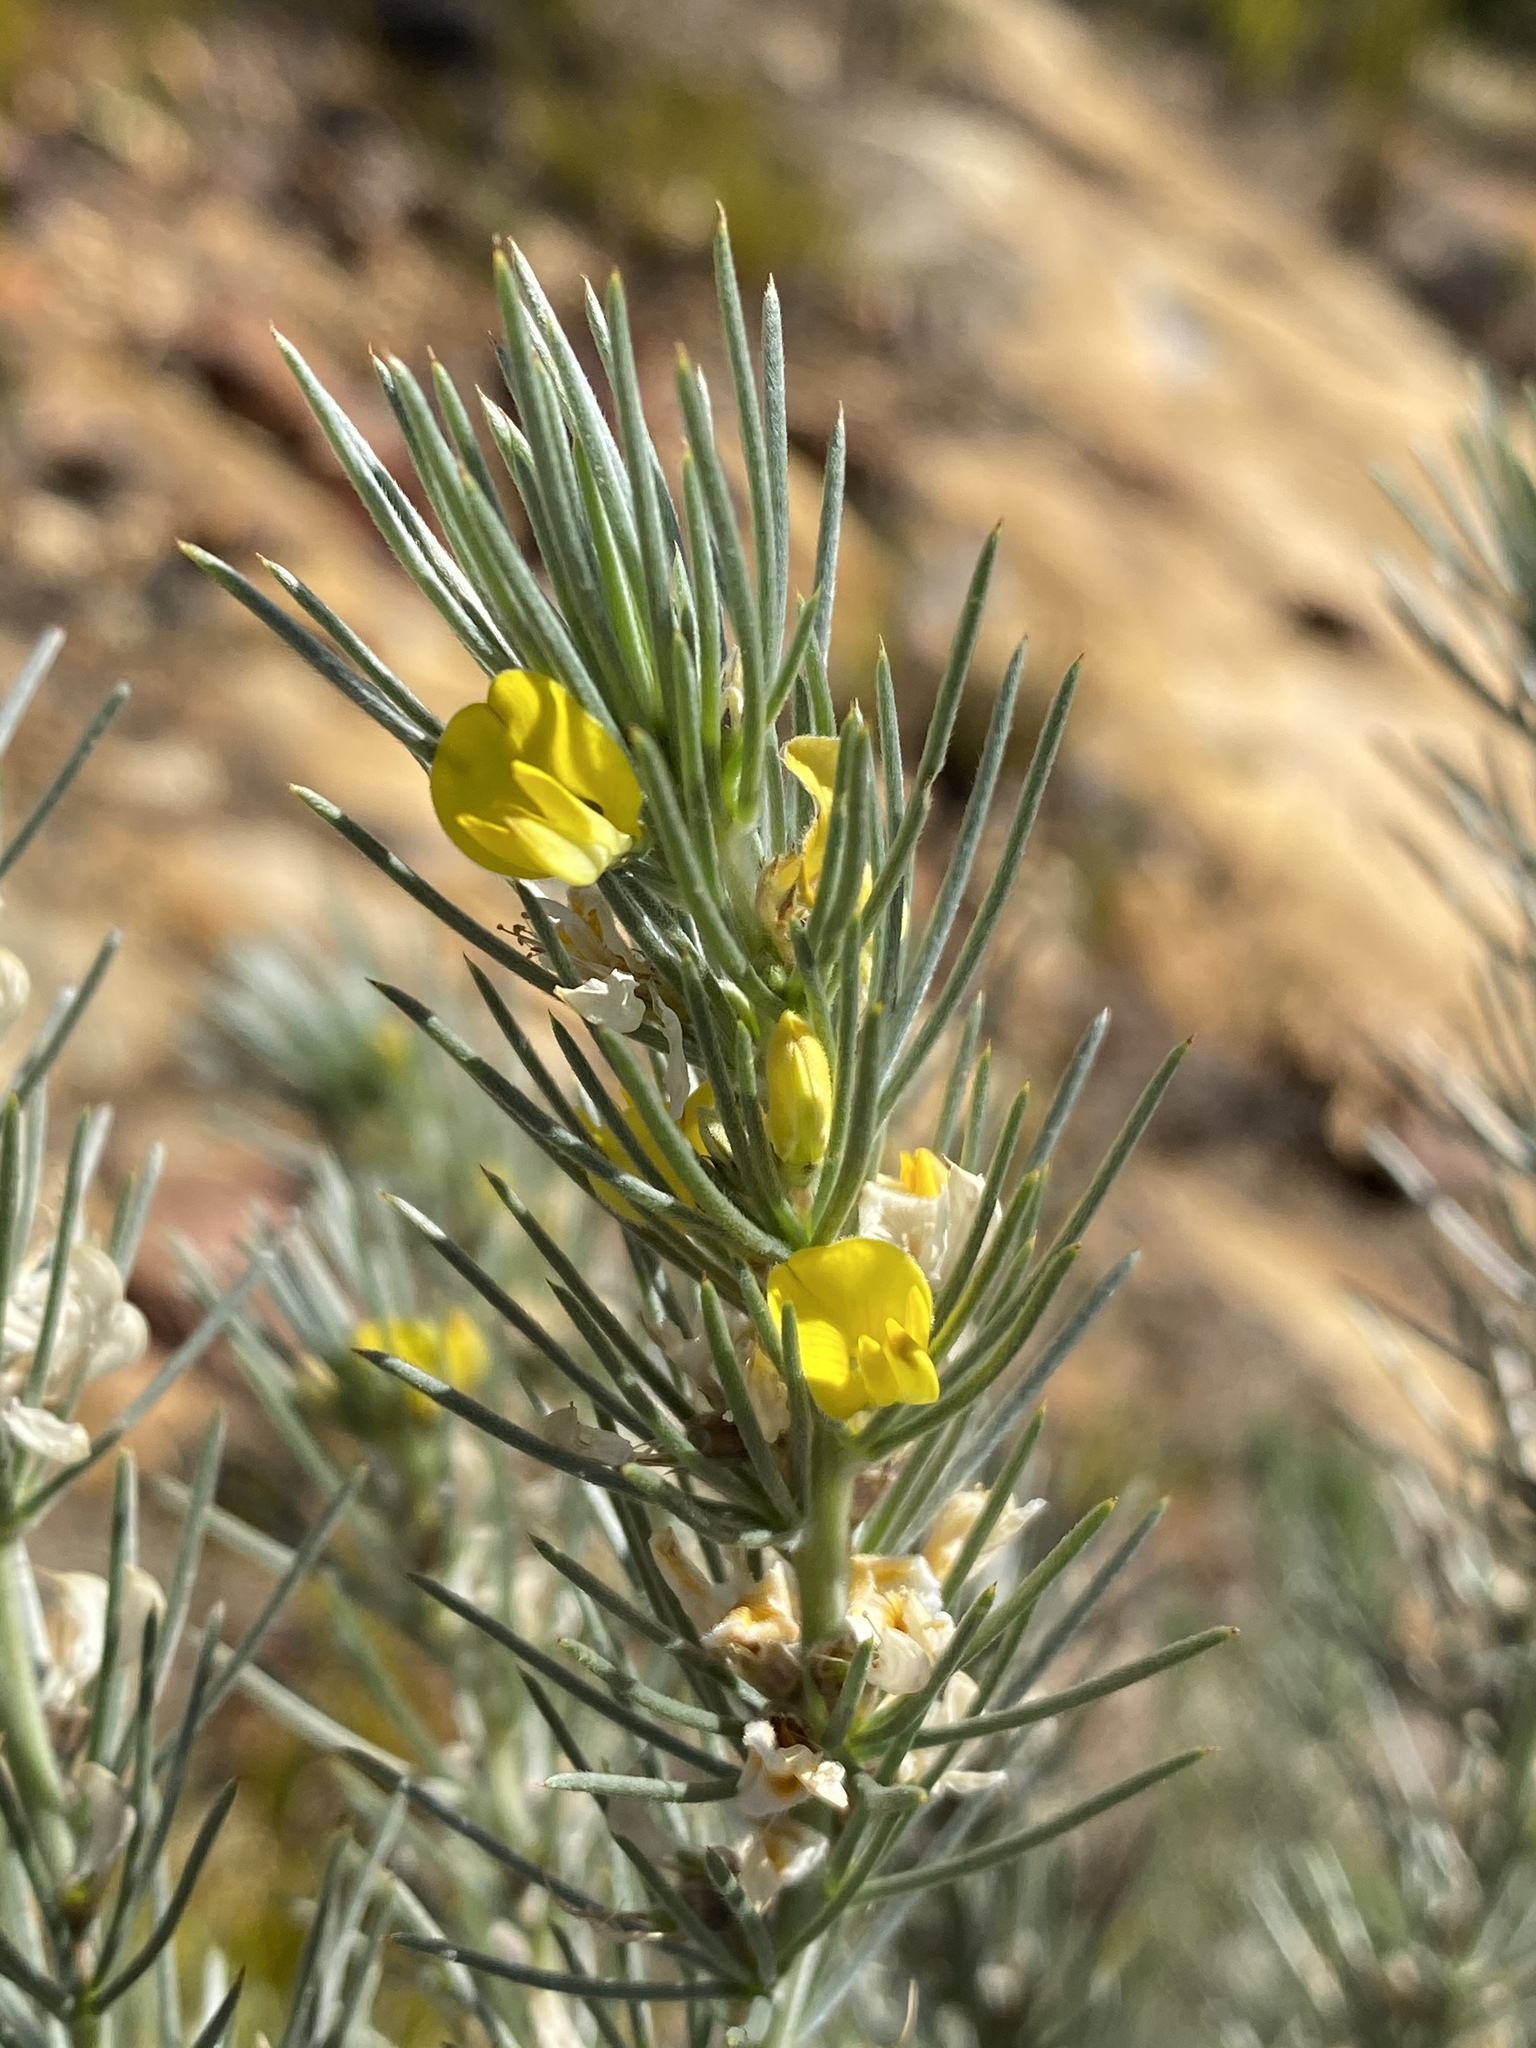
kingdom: Plantae
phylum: Tracheophyta
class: Magnoliopsida
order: Fabales
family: Fabaceae
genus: Aspalathus
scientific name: Aspalathus florifera
